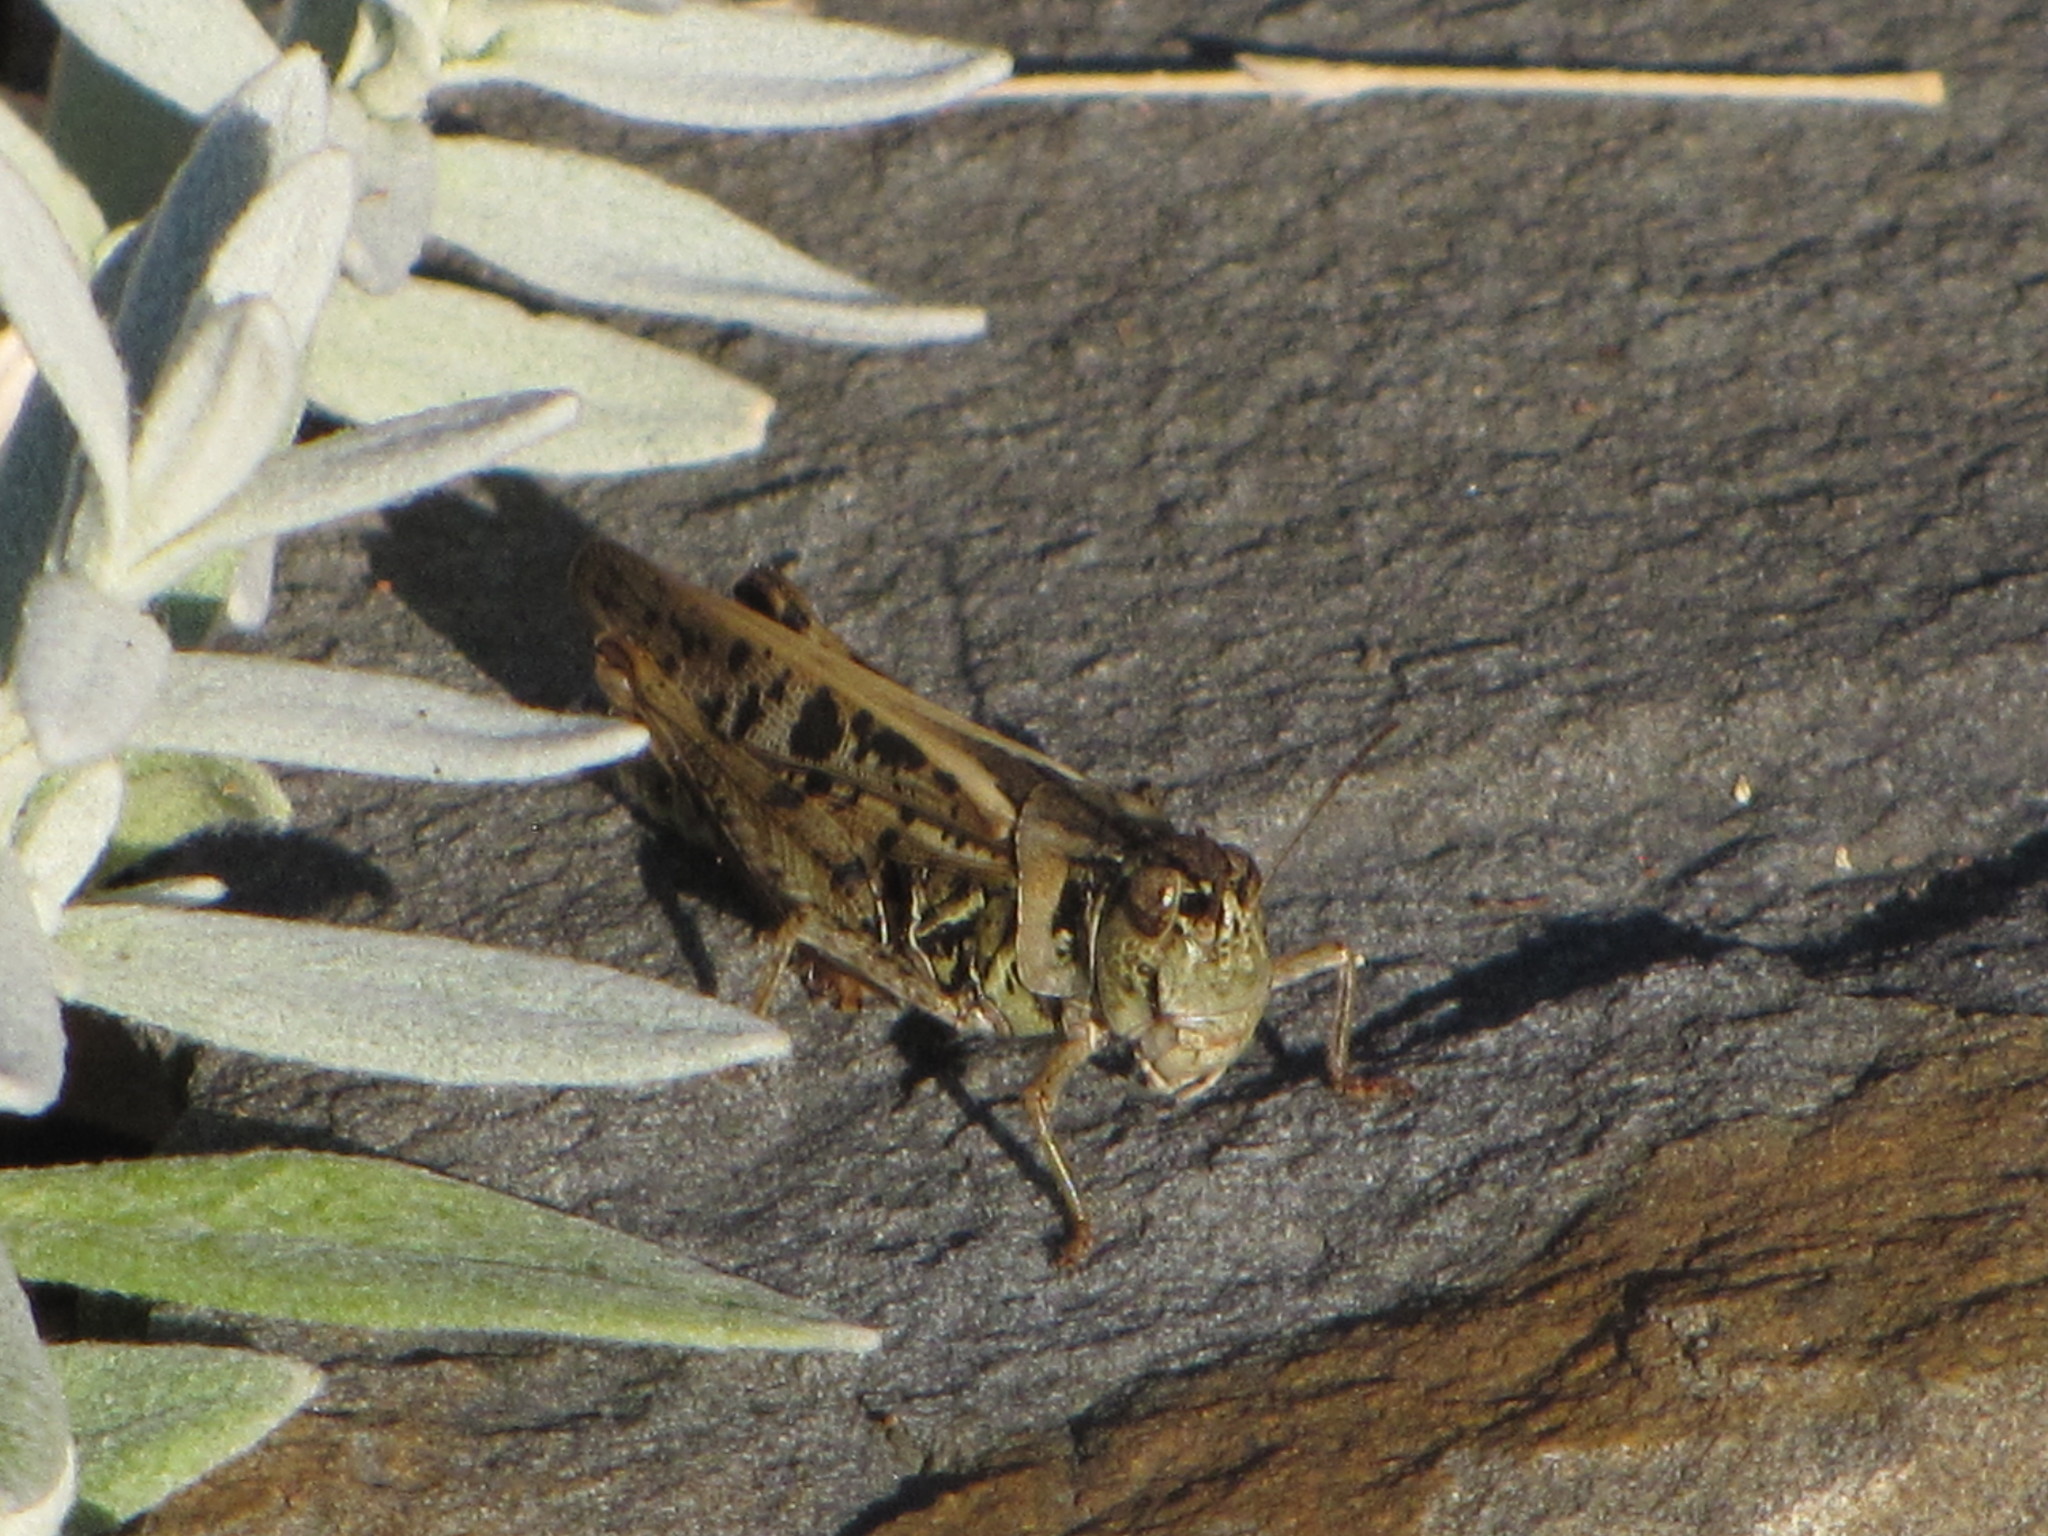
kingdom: Animalia
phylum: Arthropoda
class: Insecta
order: Orthoptera
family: Acrididae
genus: Camnula
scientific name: Camnula pellucida
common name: Clear-winged grasshopper
